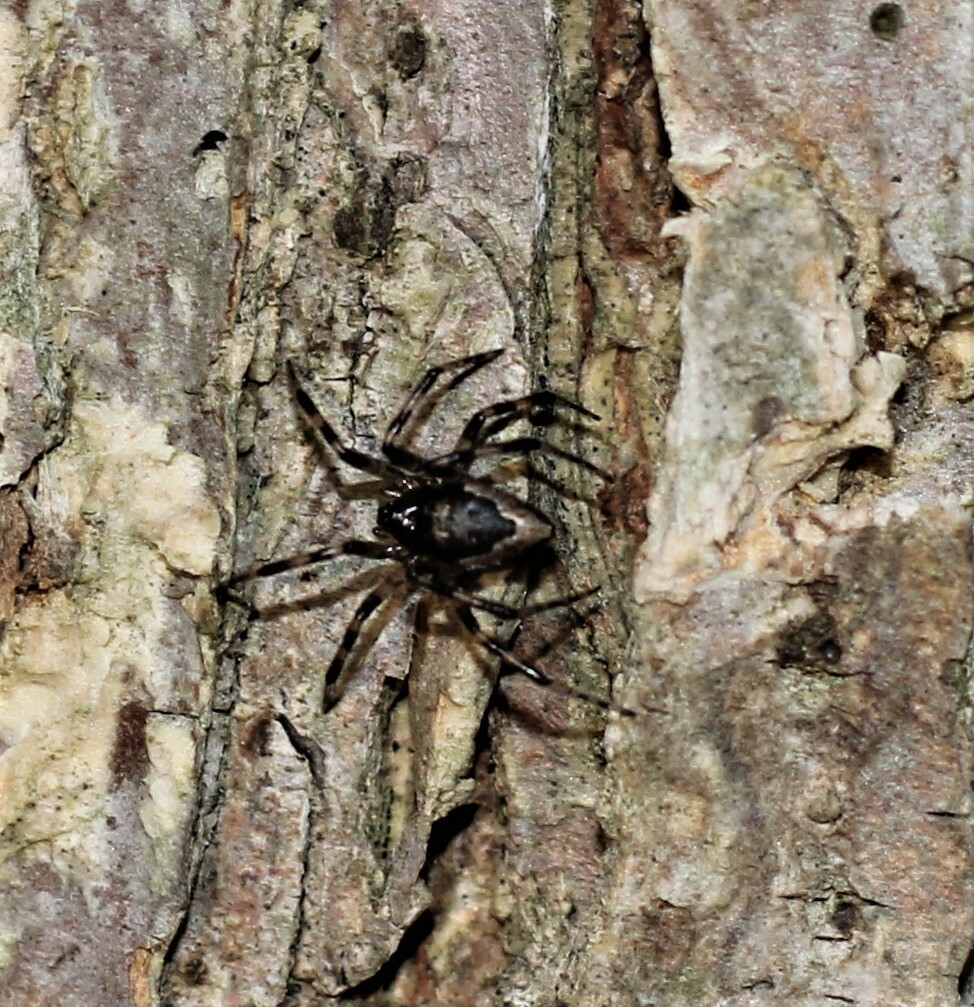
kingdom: Animalia
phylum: Arthropoda
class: Arachnida
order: Araneae
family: Theridiidae
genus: Euryopis
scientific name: Euryopis funebris
